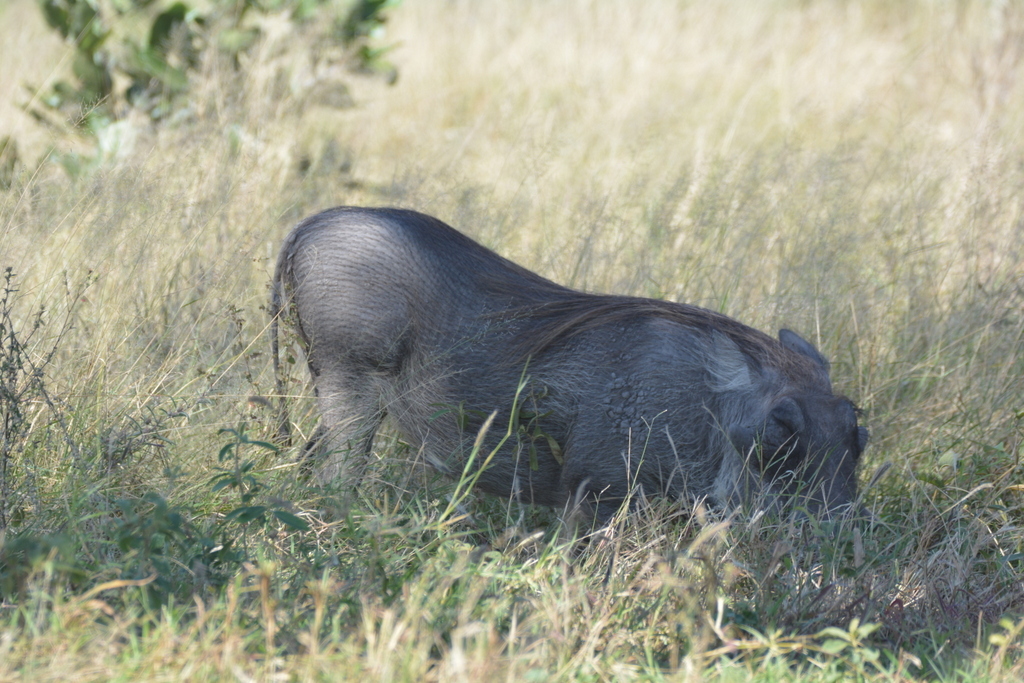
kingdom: Animalia
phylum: Chordata
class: Mammalia
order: Artiodactyla
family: Suidae
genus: Phacochoerus
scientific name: Phacochoerus africanus
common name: Common warthog
